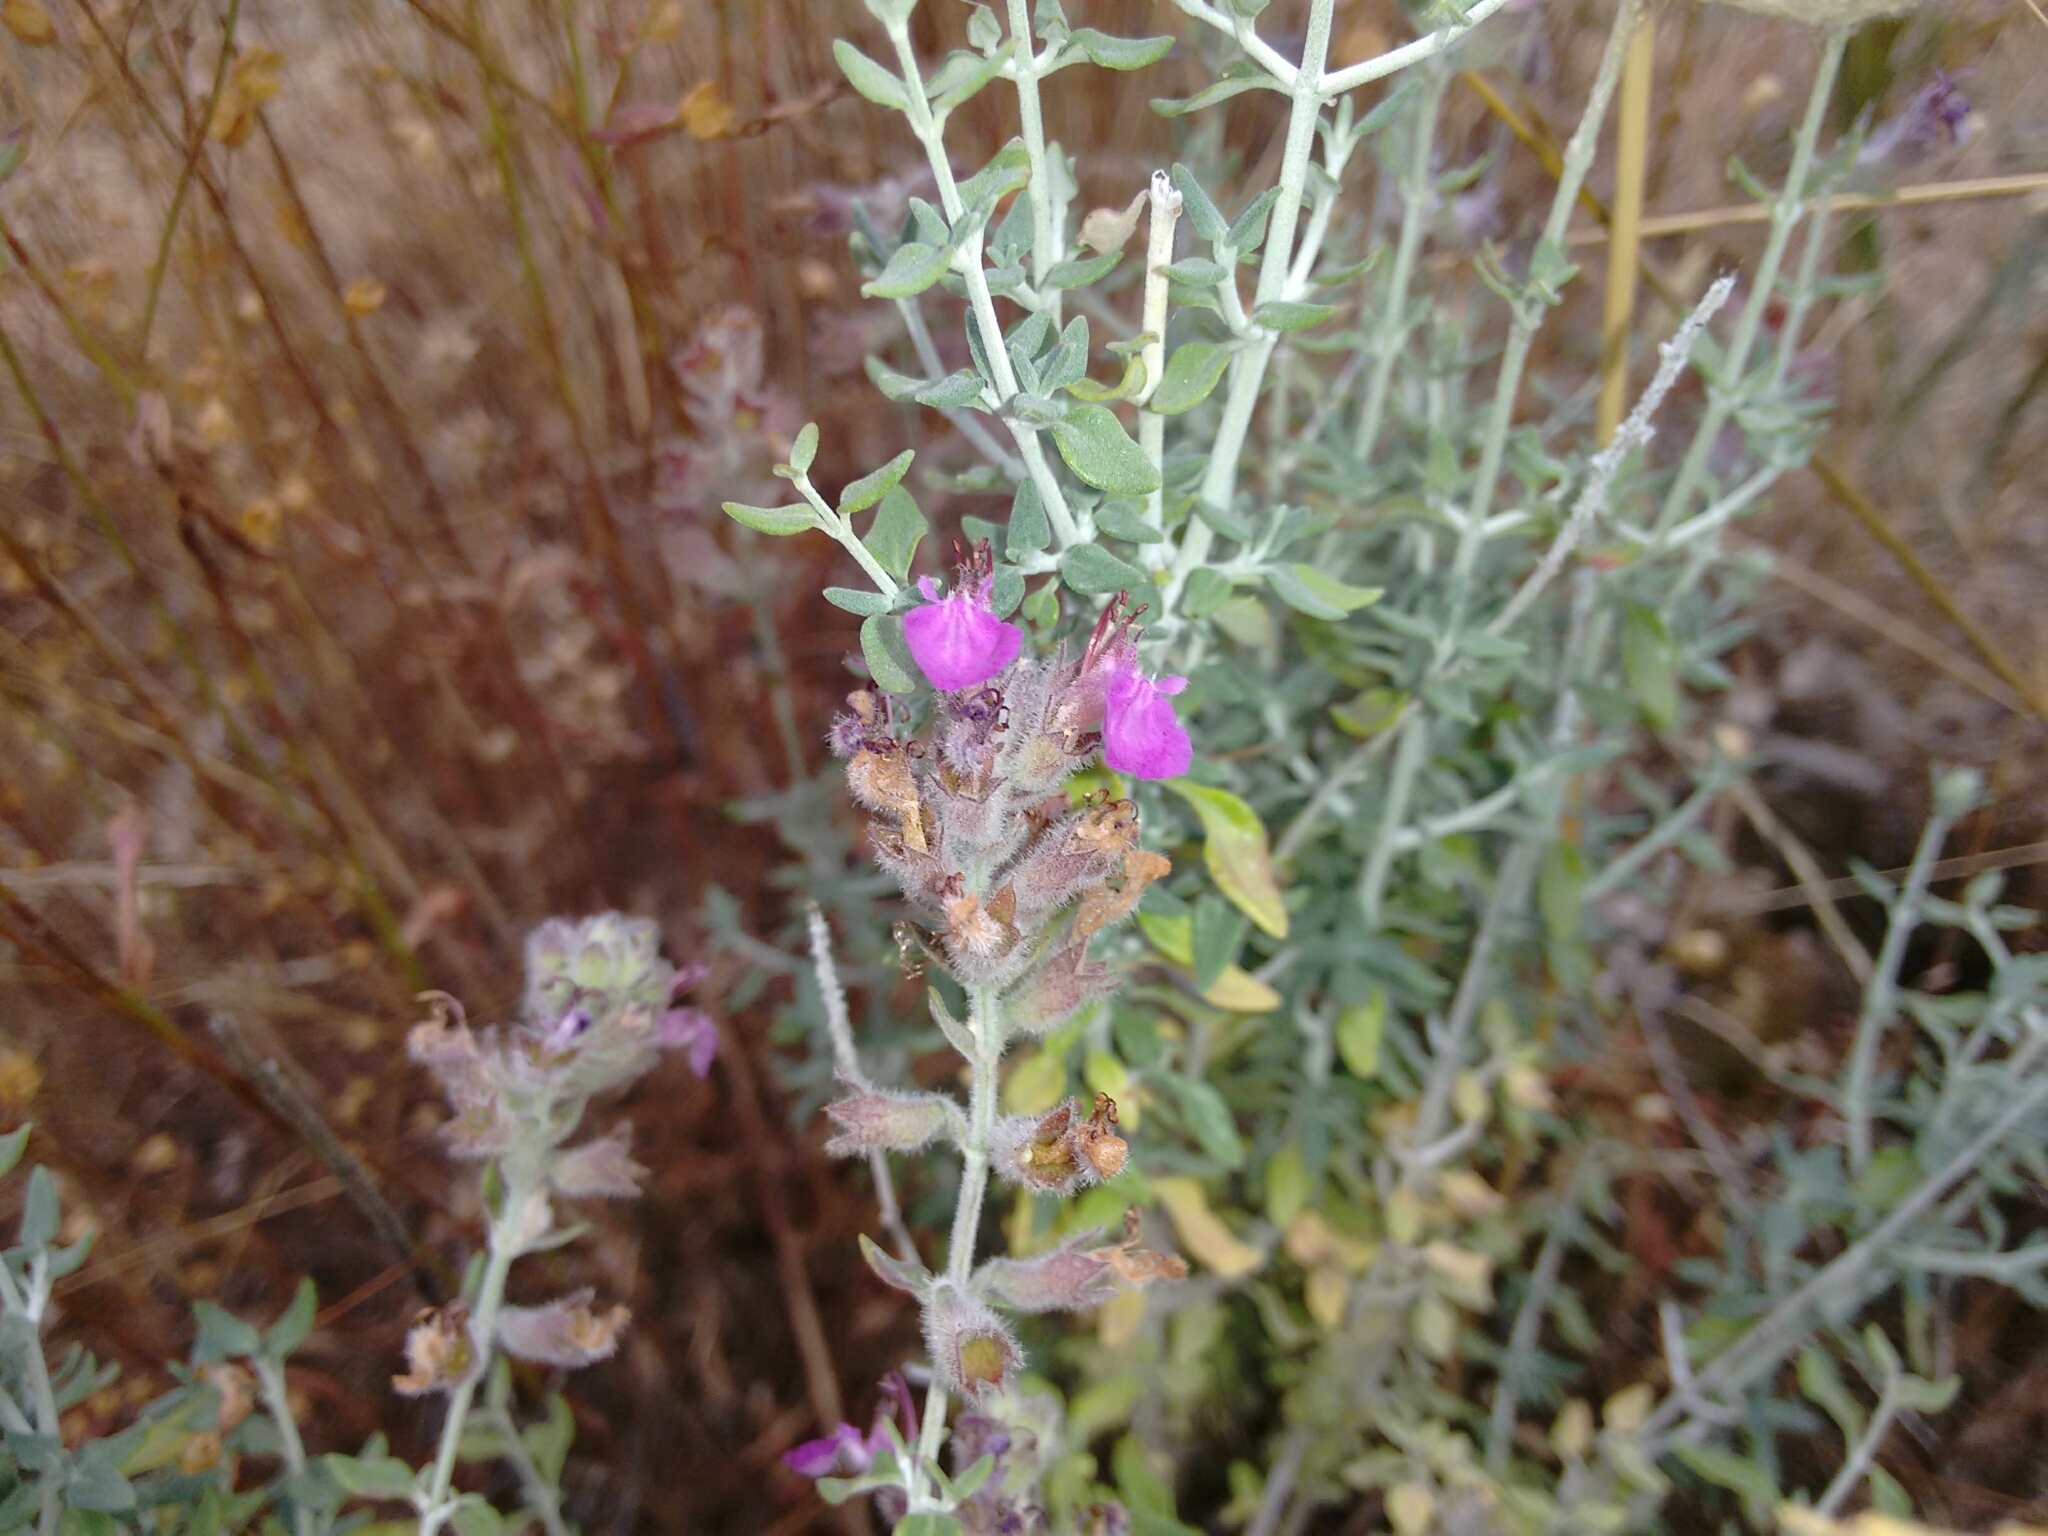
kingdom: Plantae
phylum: Tracheophyta
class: Magnoliopsida
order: Lamiales
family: Lamiaceae
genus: Teucrium
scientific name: Teucrium marum
